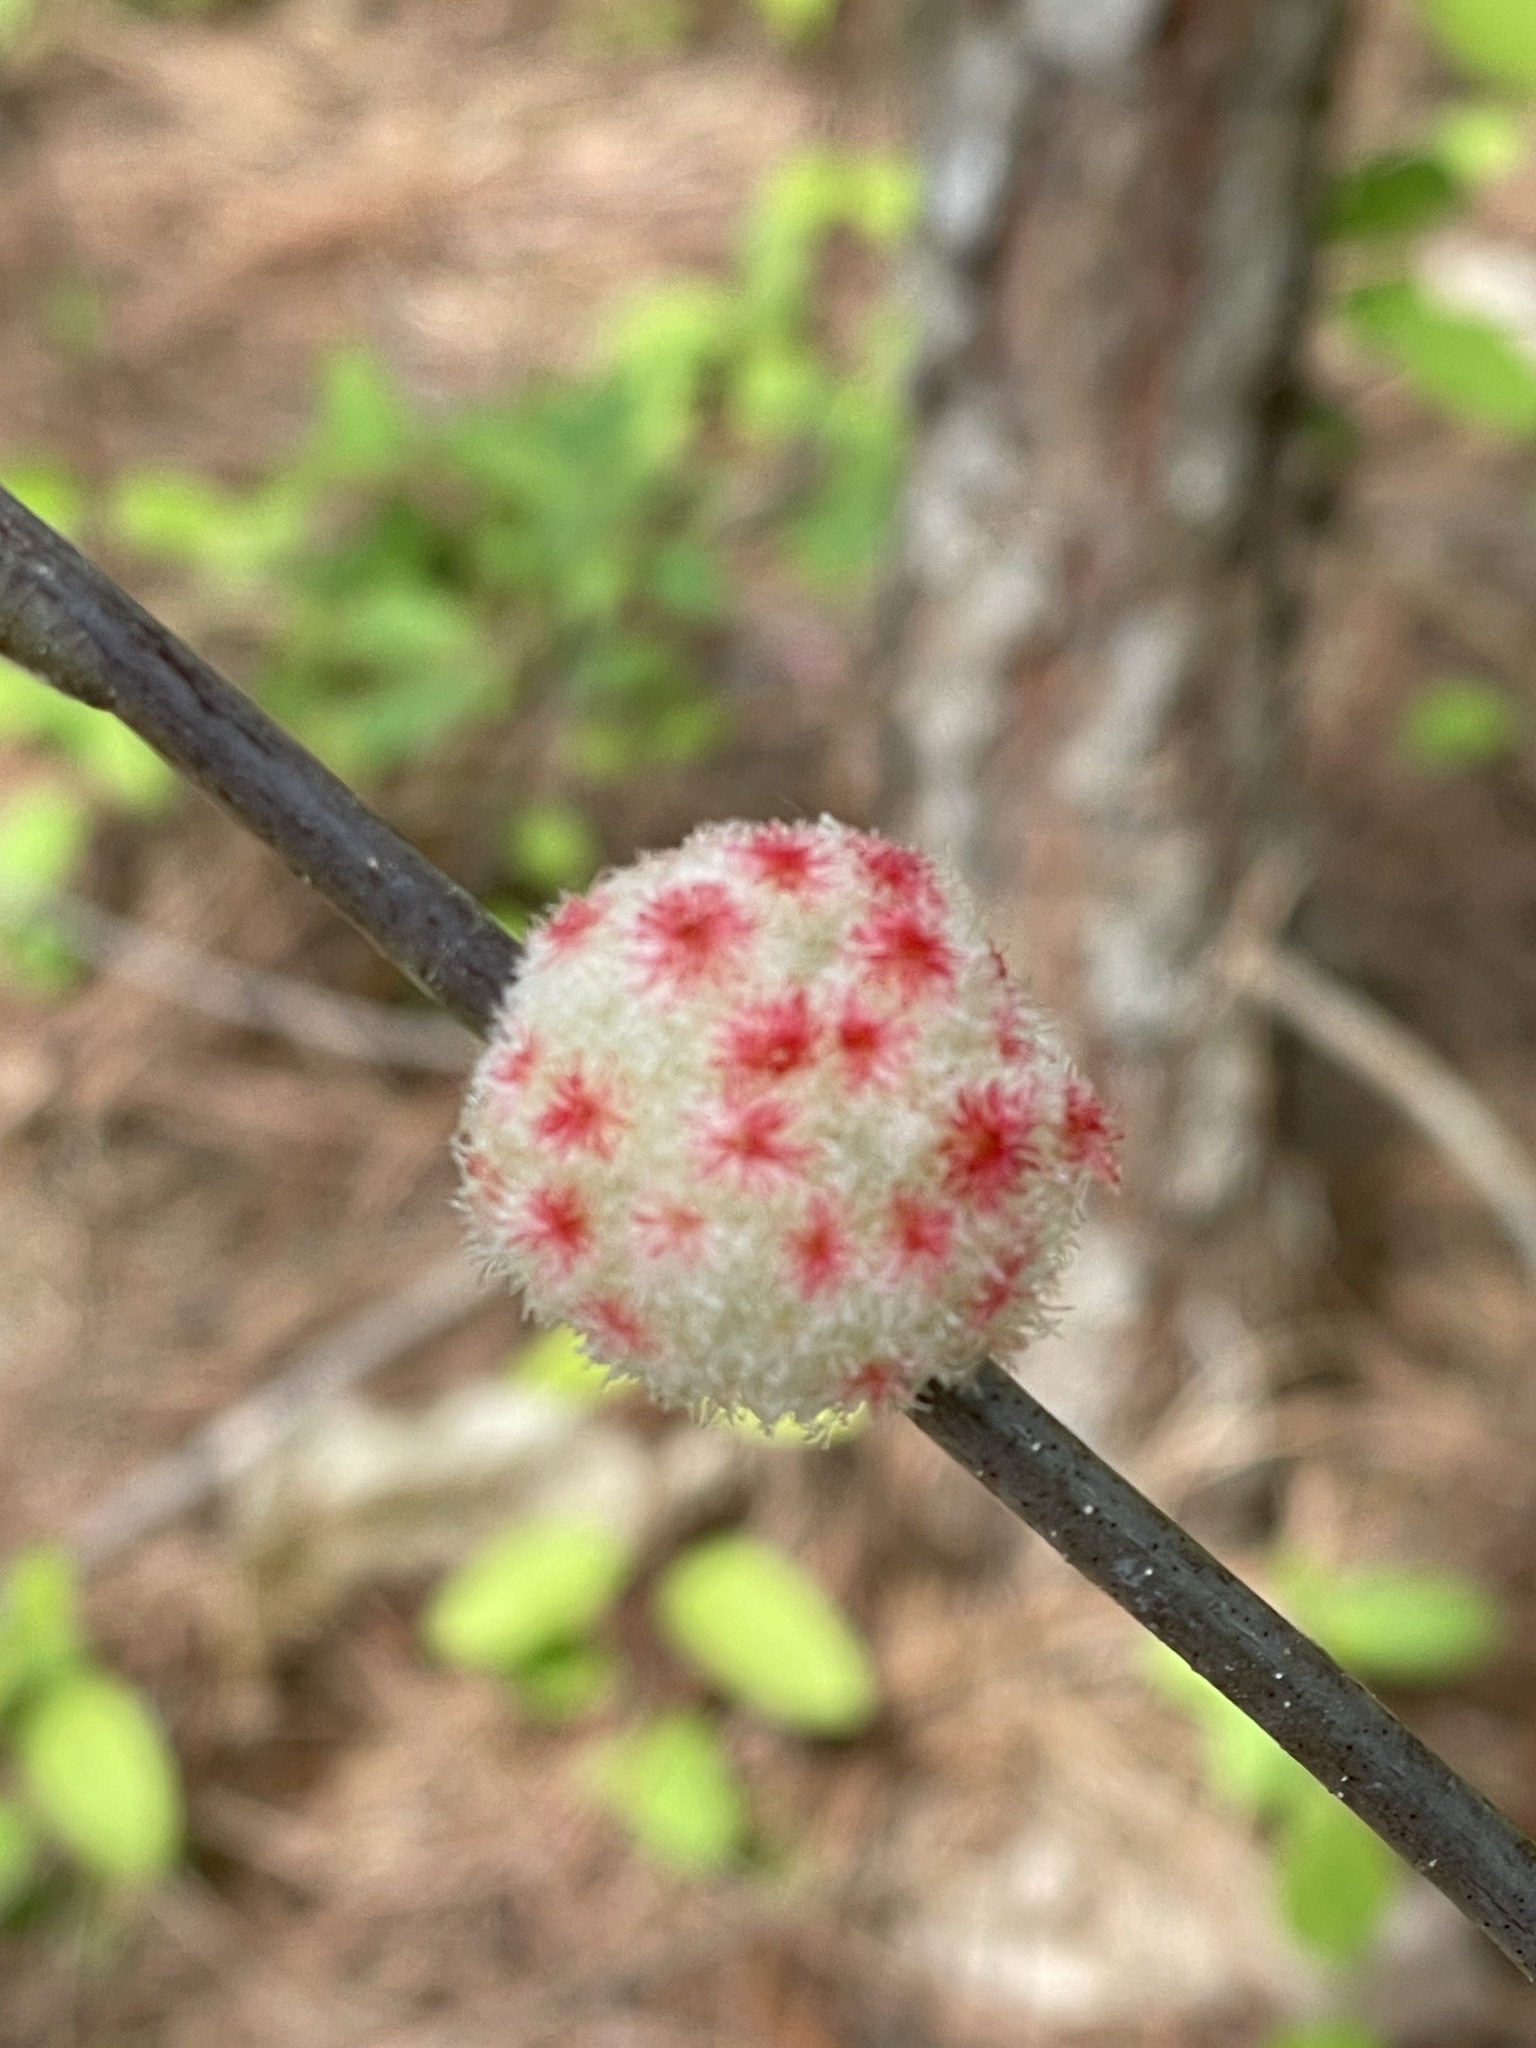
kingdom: Animalia
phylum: Arthropoda
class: Insecta
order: Hymenoptera
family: Cynipidae
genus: Callirhytis
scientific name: Callirhytis
